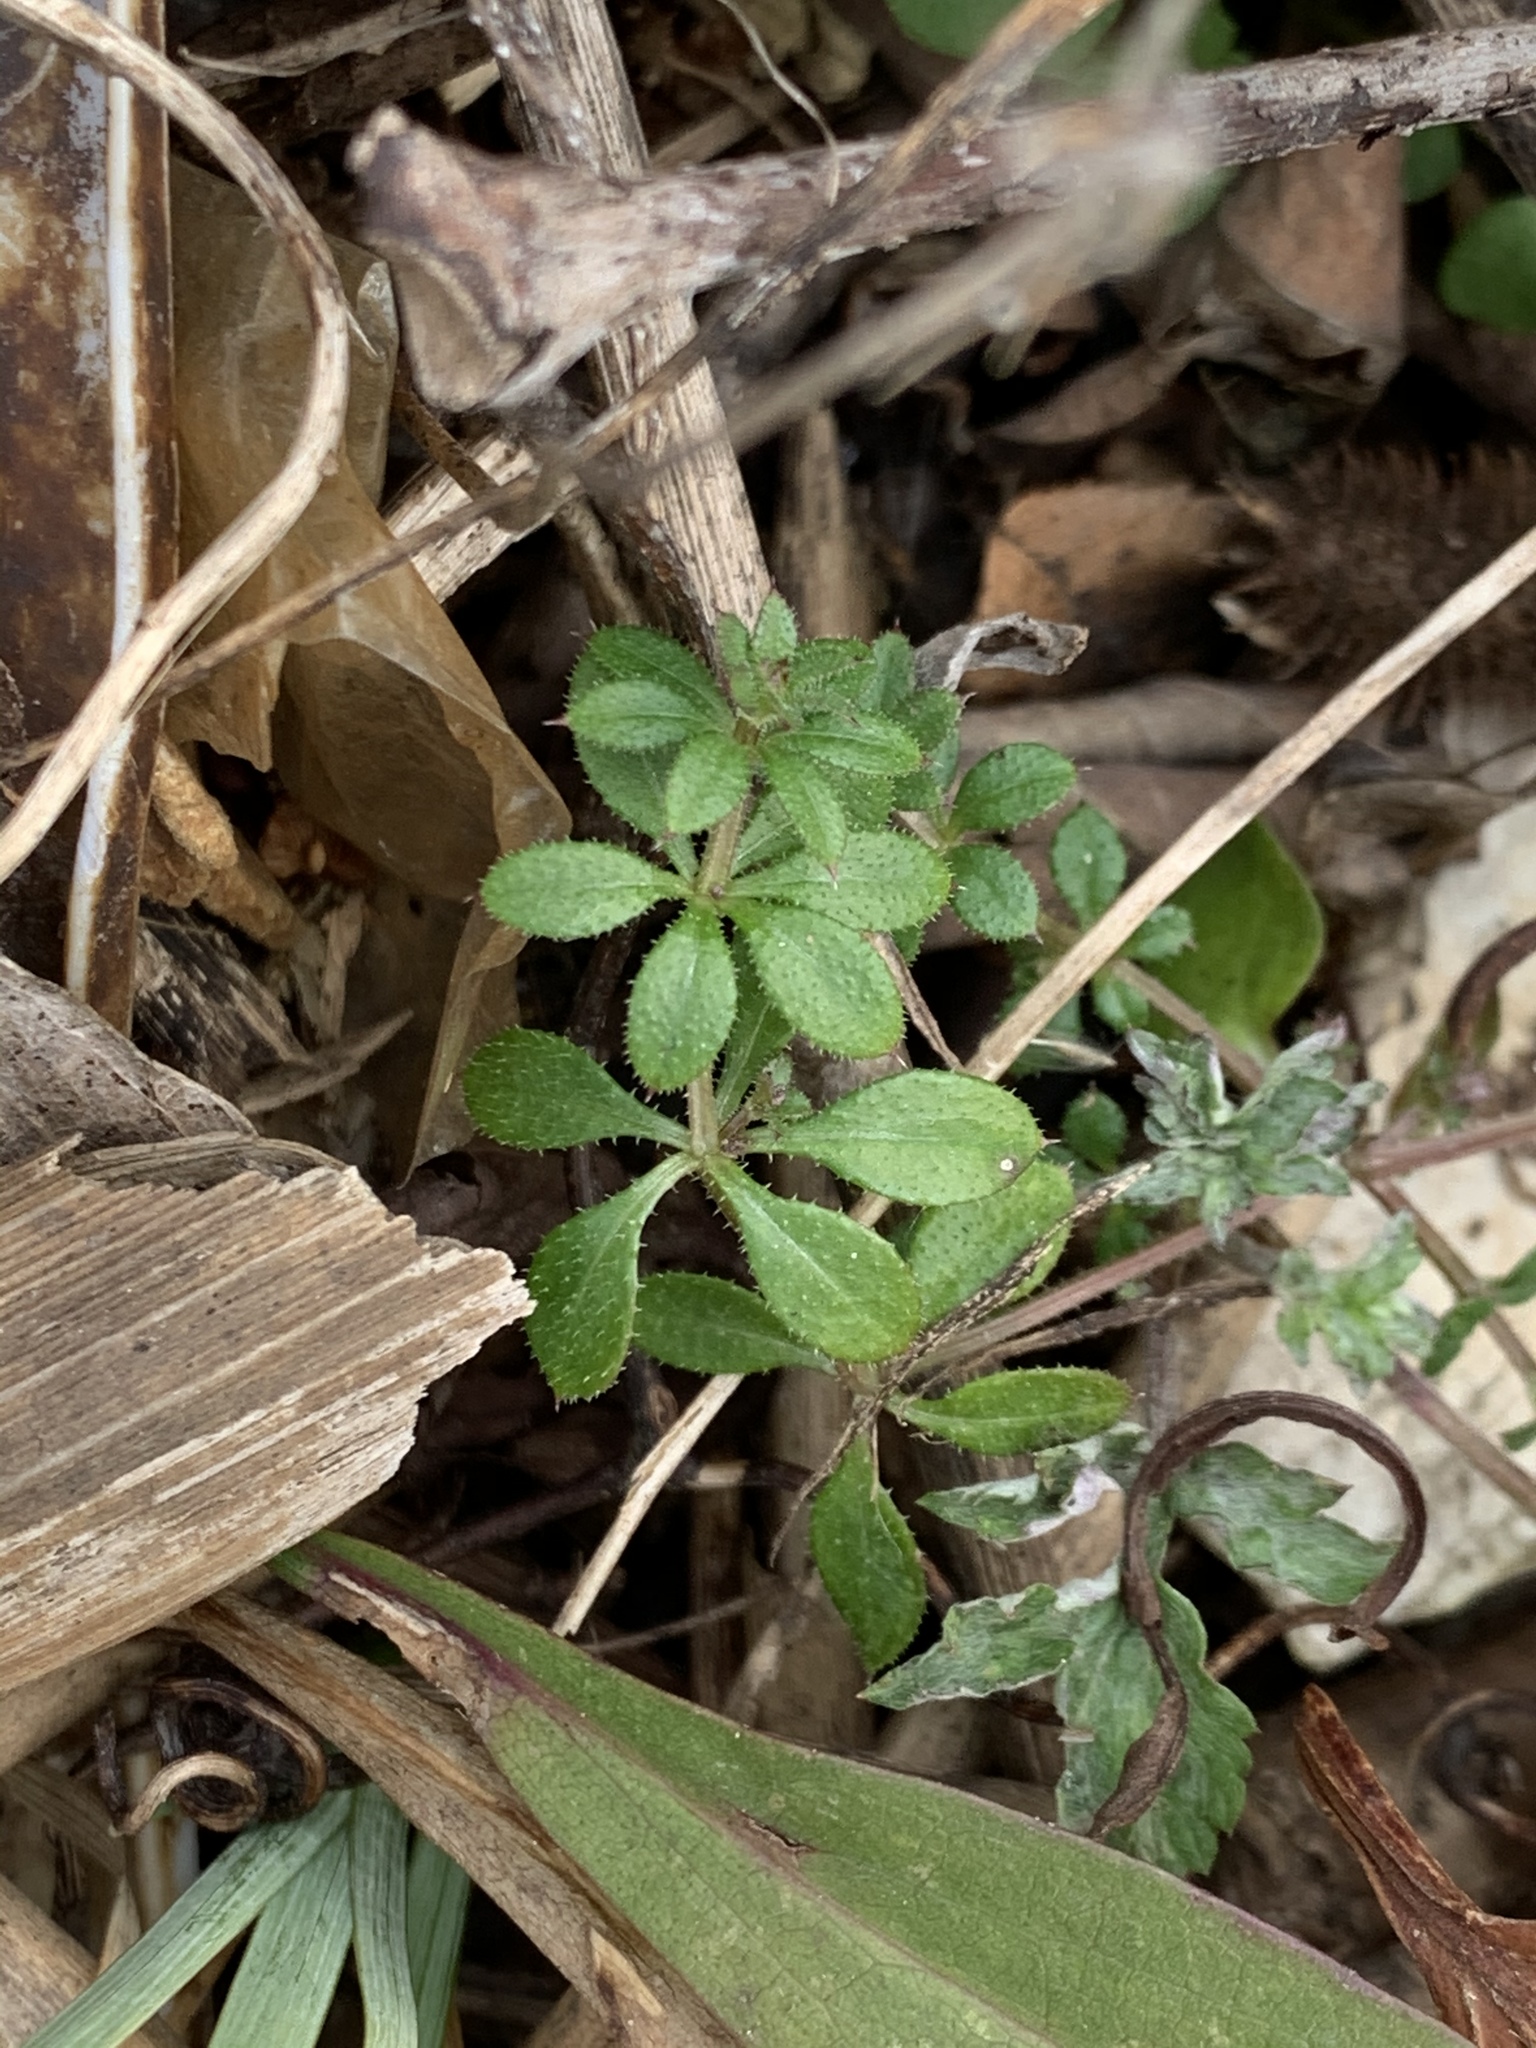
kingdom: Plantae
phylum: Tracheophyta
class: Magnoliopsida
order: Gentianales
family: Rubiaceae
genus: Galium
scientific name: Galium aparine
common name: Cleavers
